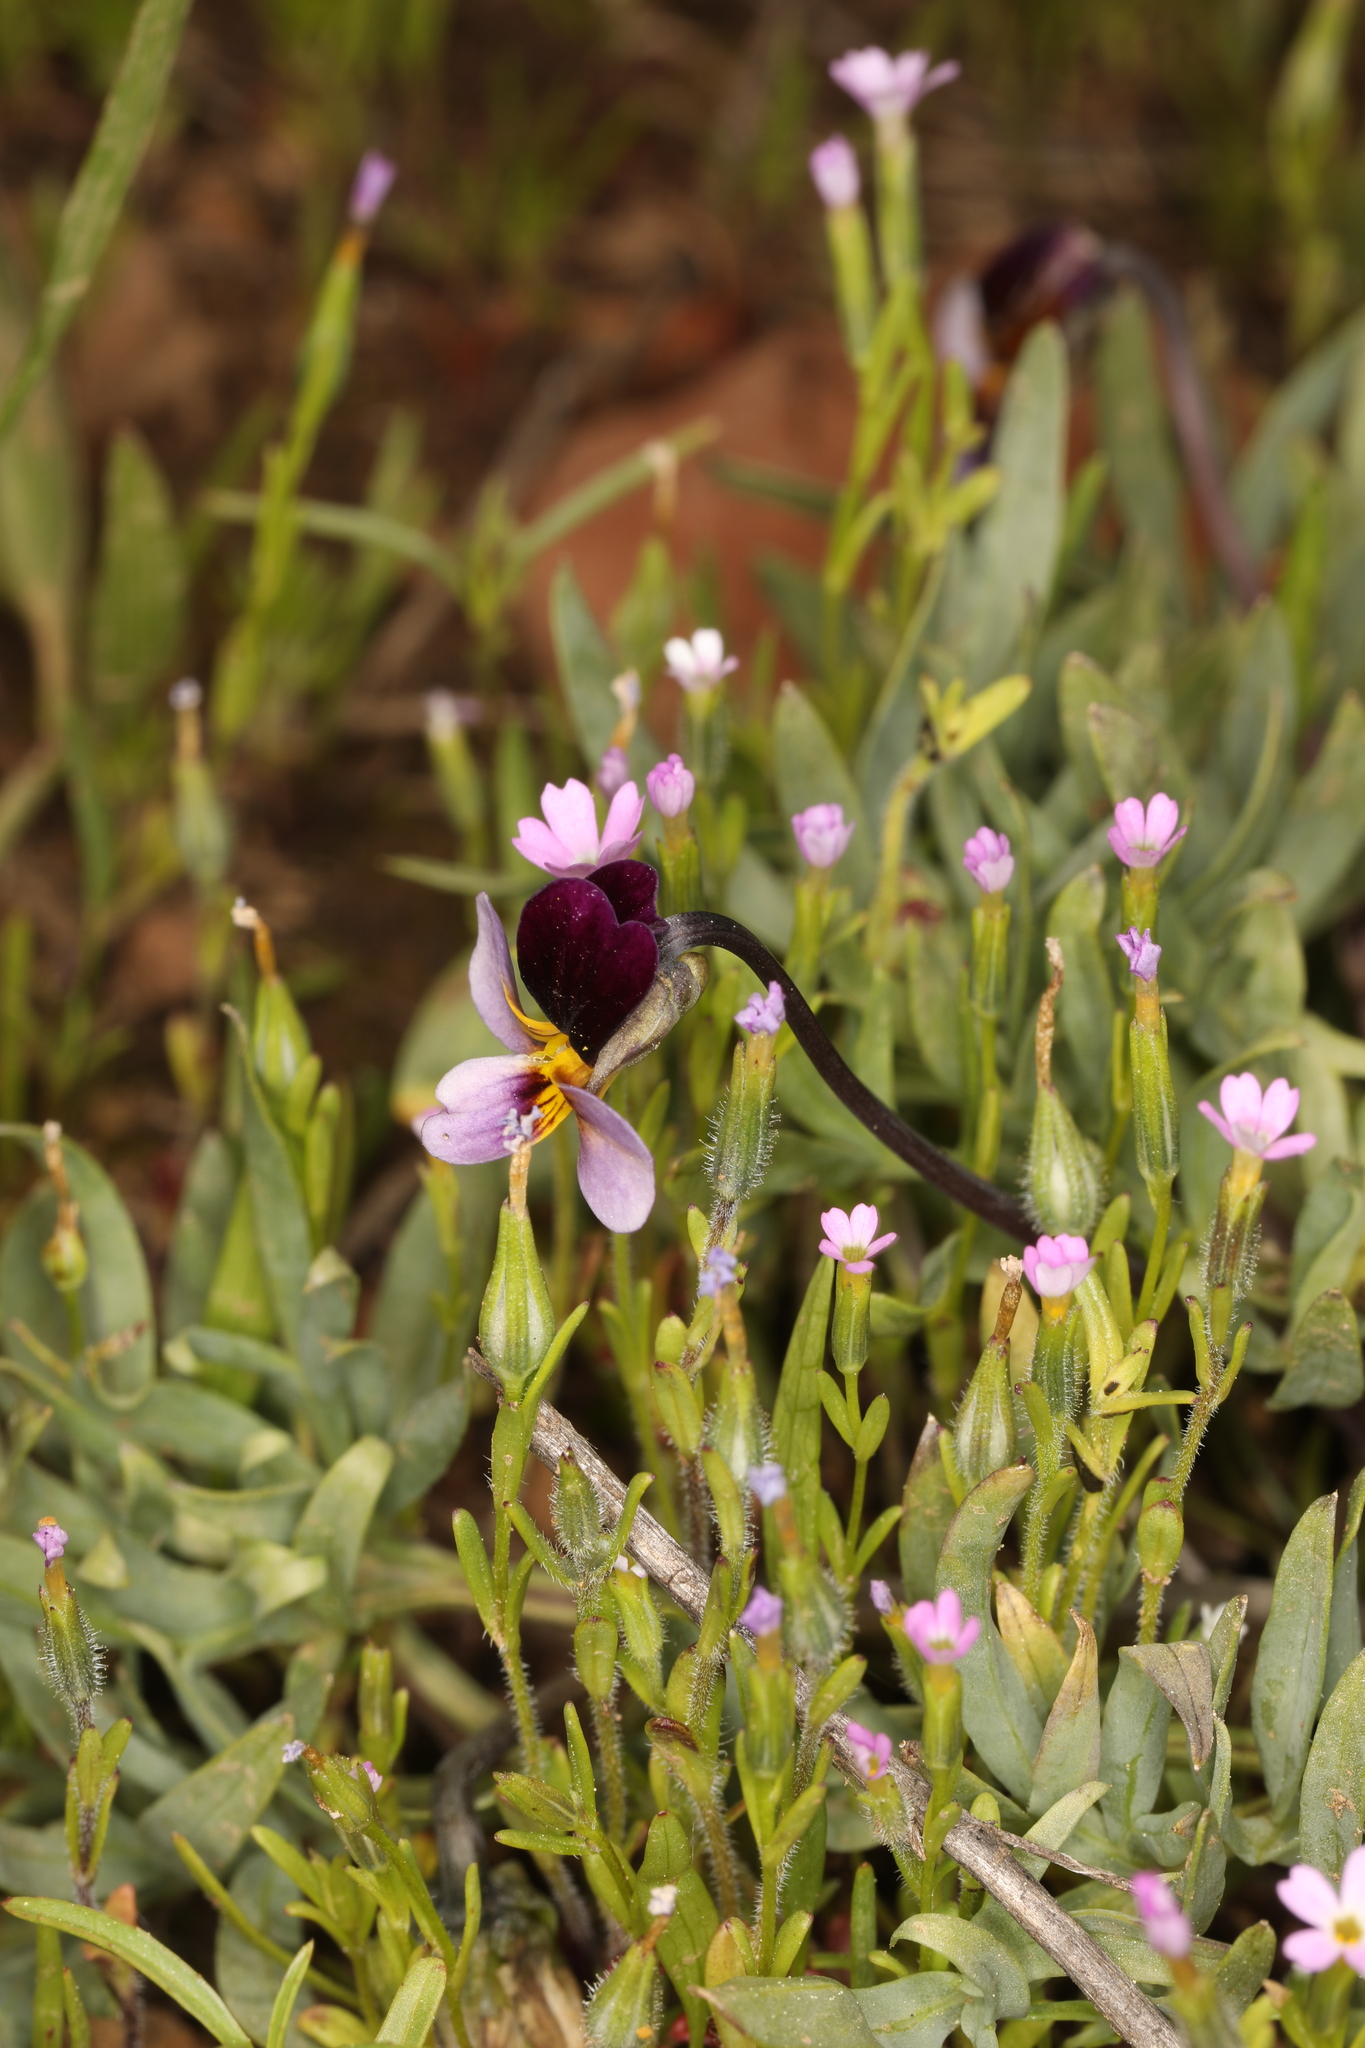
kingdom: Plantae
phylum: Tracheophyta
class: Magnoliopsida
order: Malpighiales
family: Violaceae
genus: Viola
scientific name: Viola beckwithii
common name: Beckwith's violet
